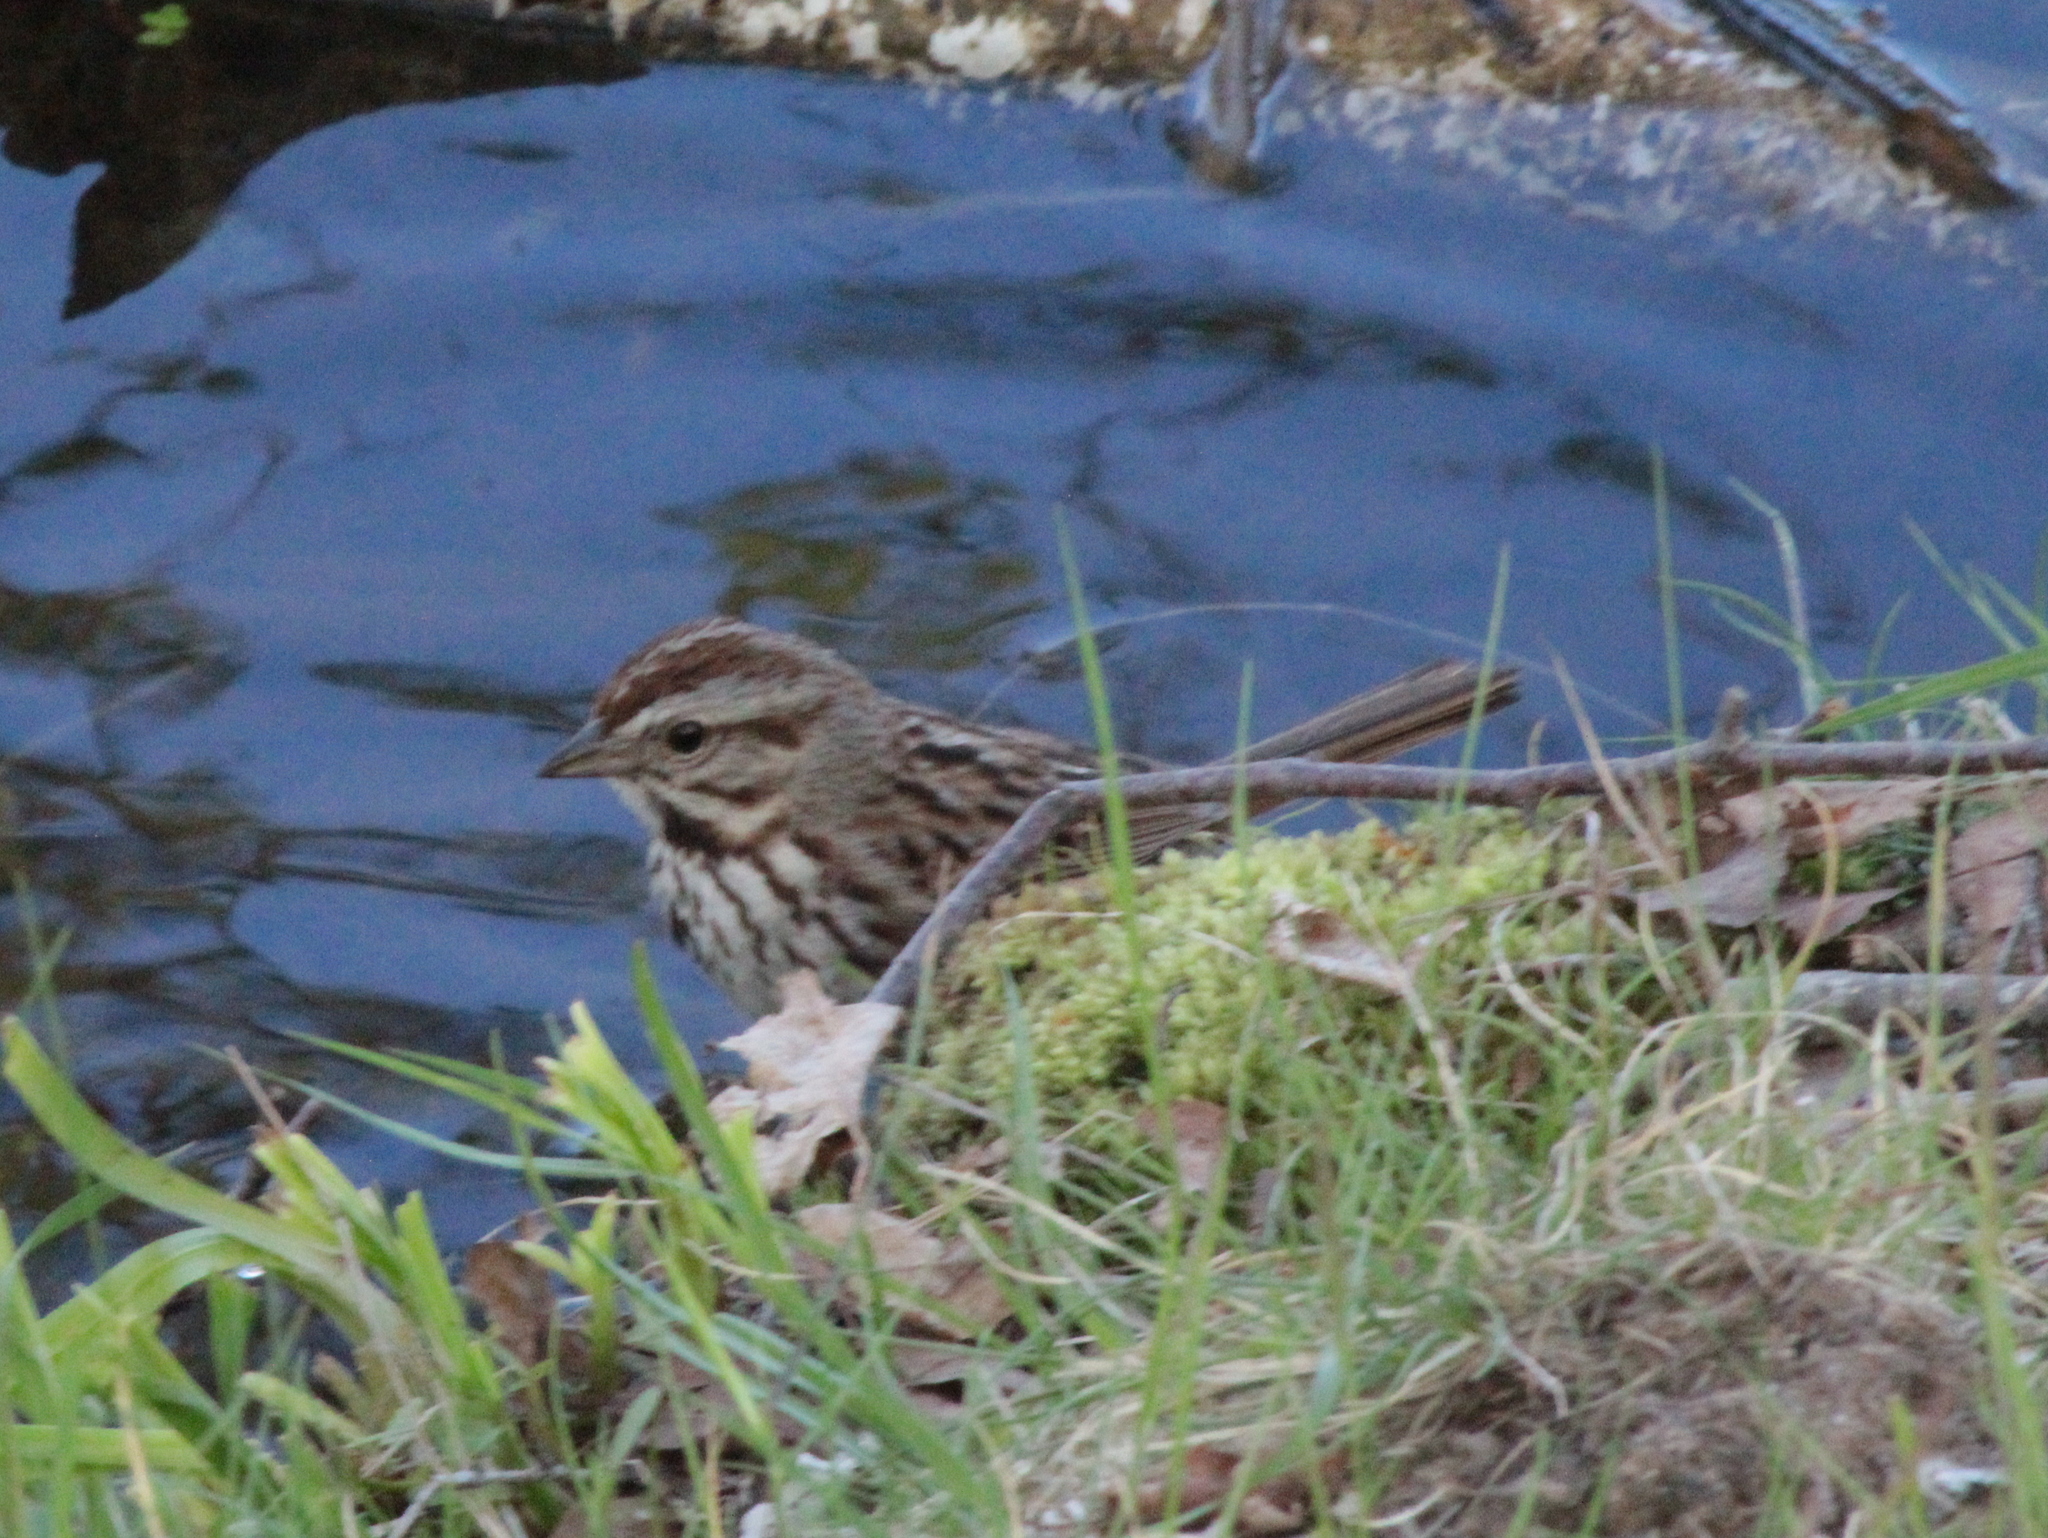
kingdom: Animalia
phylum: Chordata
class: Aves
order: Passeriformes
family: Passerellidae
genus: Melospiza
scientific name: Melospiza melodia
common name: Song sparrow
